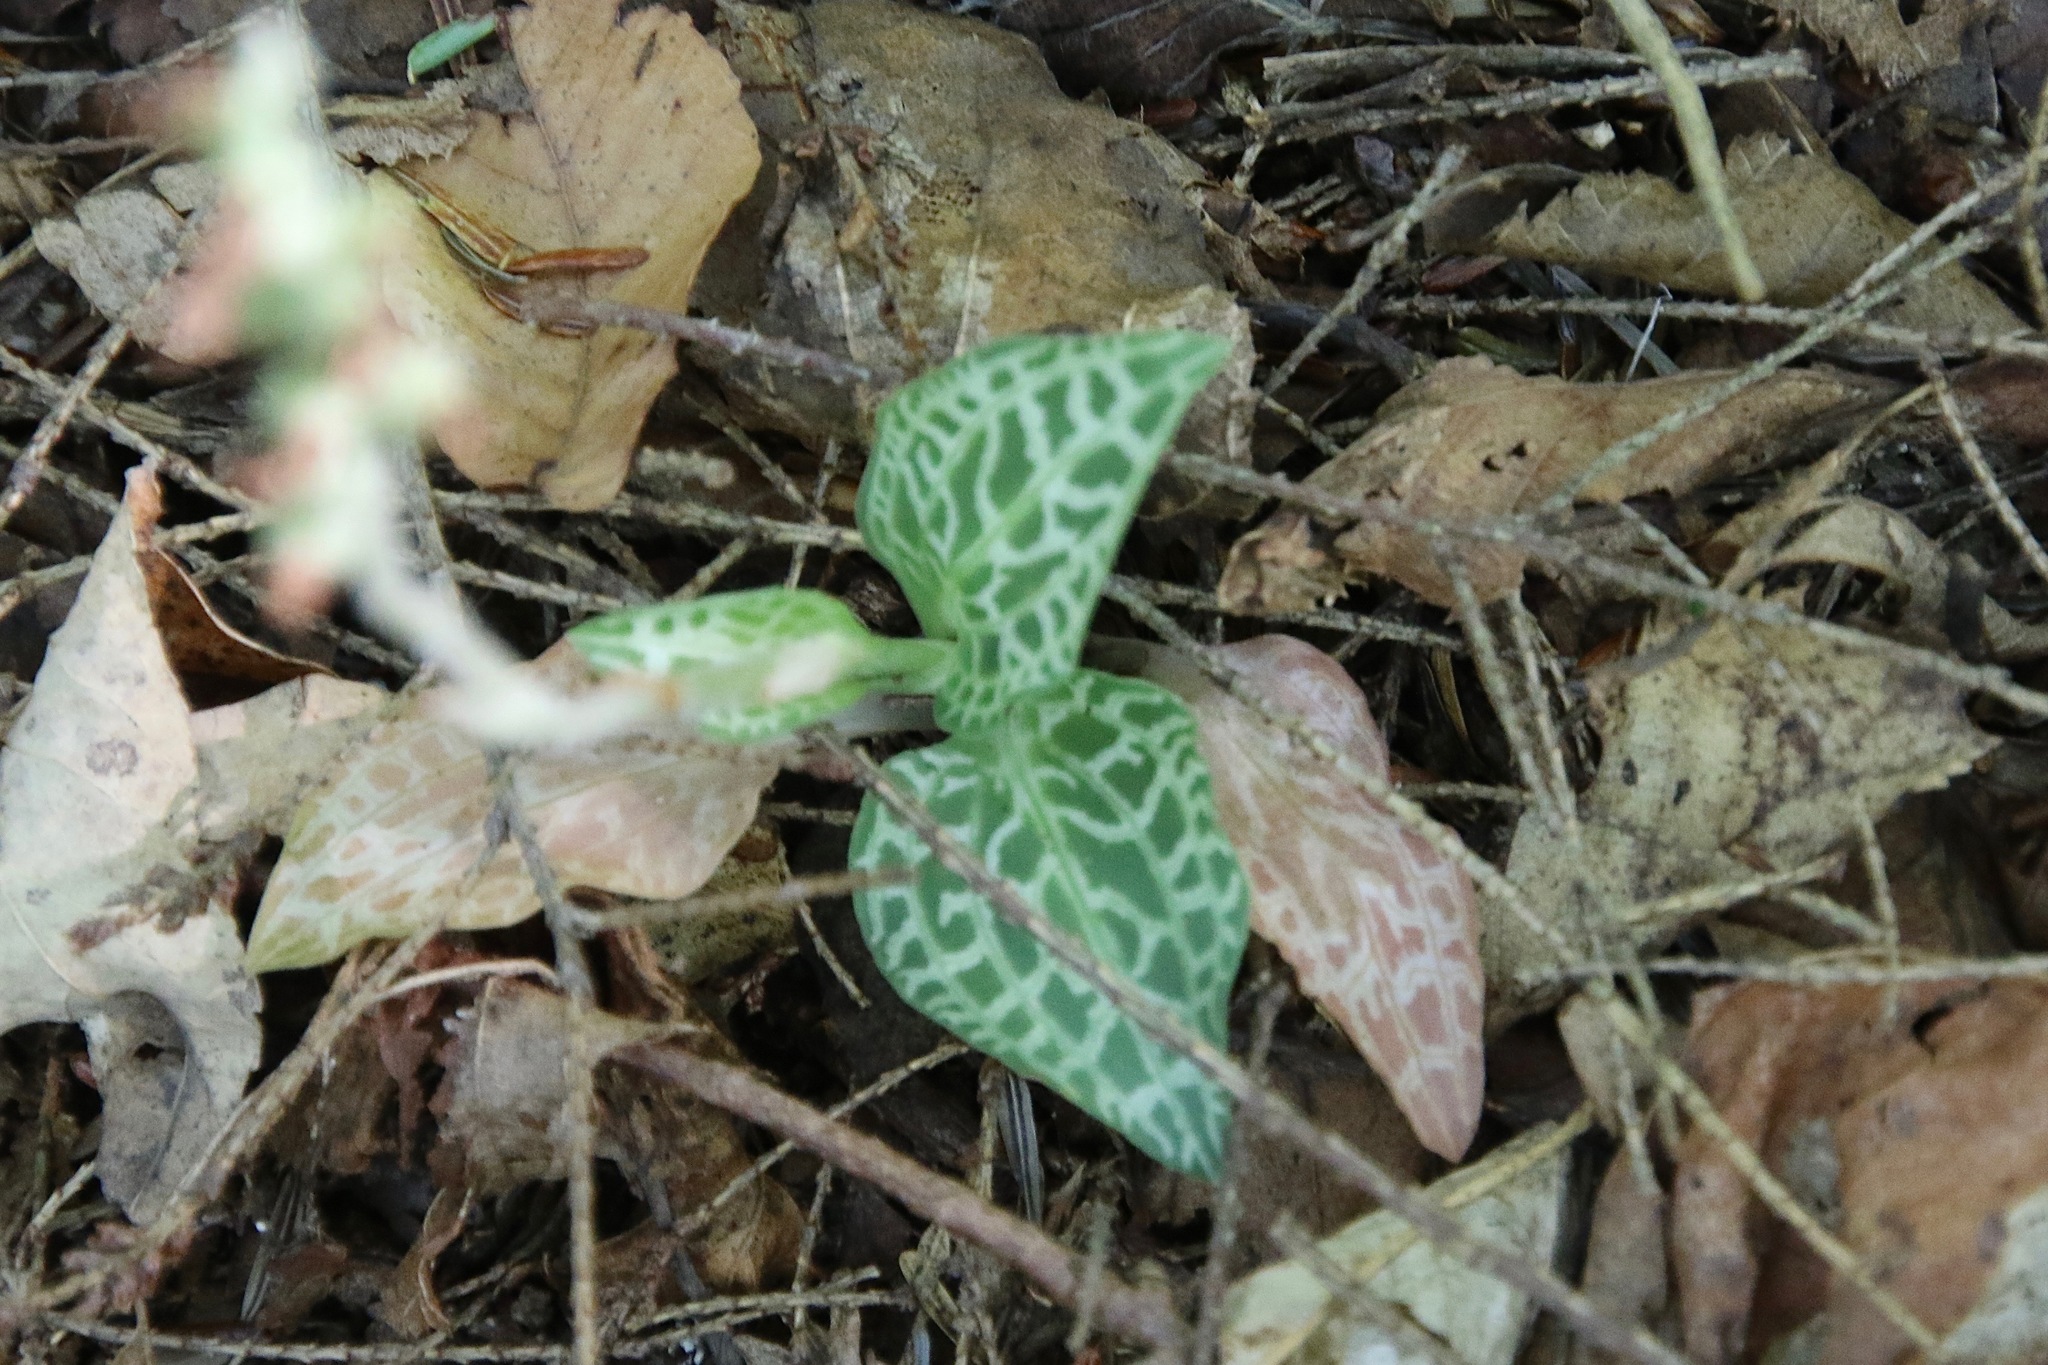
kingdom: Plantae
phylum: Tracheophyta
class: Liliopsida
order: Asparagales
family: Orchidaceae
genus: Goodyera
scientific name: Goodyera tesselata
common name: Checkered rattlesnake-plantain
